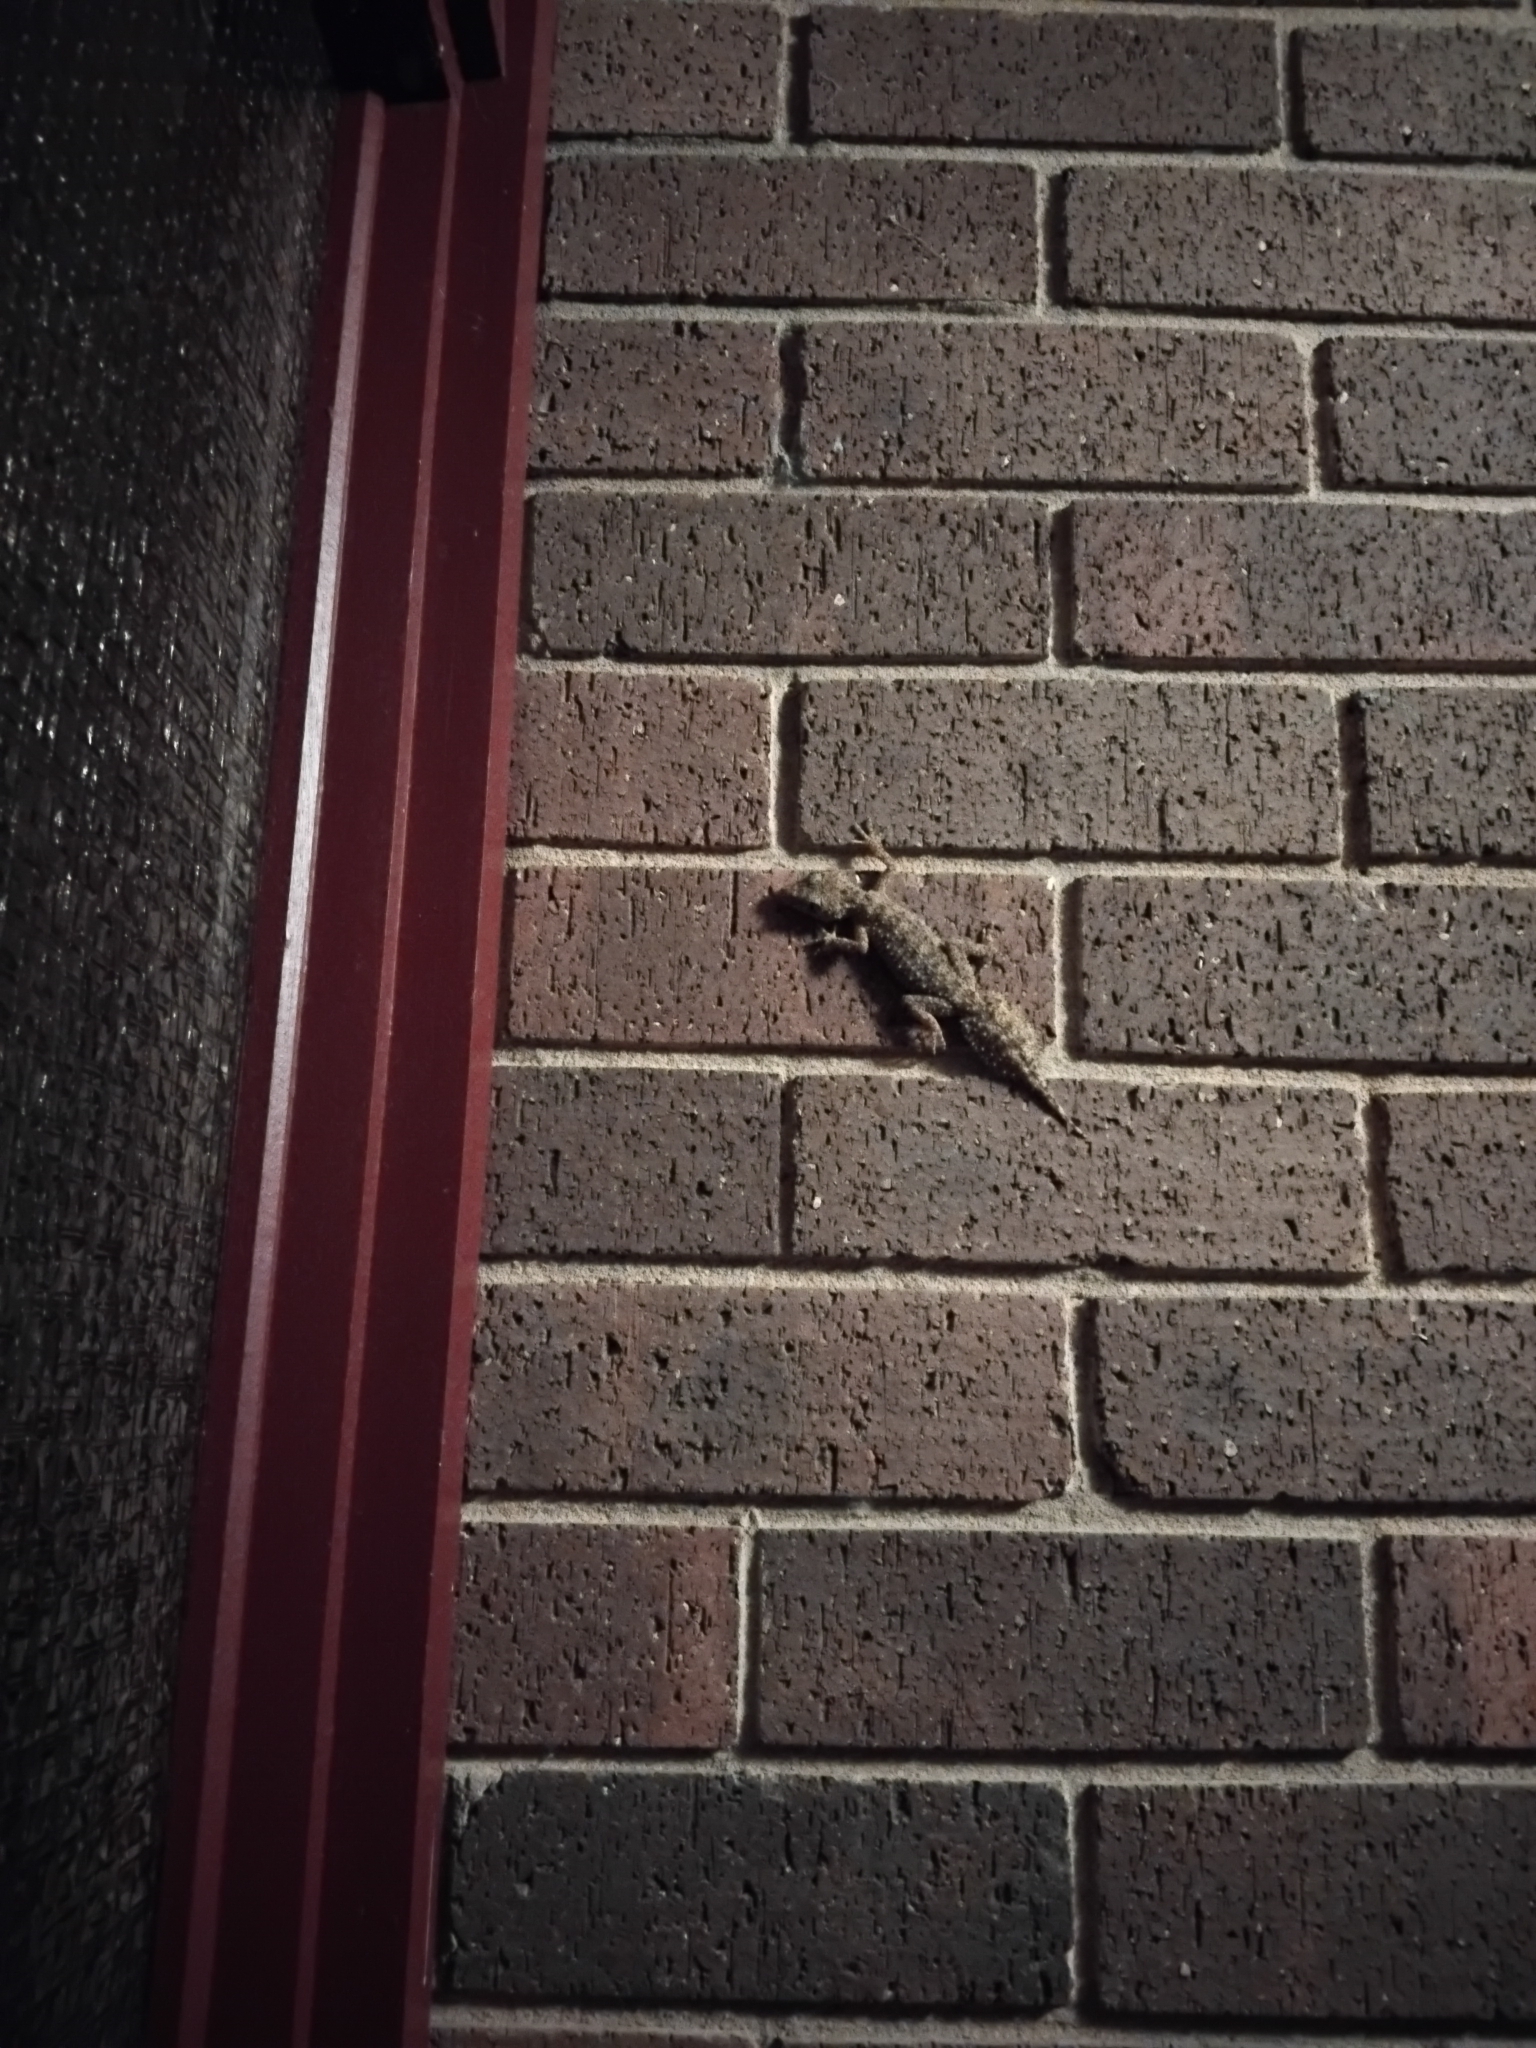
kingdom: Animalia
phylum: Chordata
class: Squamata
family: Carphodactylidae
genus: Phyllurus
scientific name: Phyllurus platurus
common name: Broad-tailed gecko
